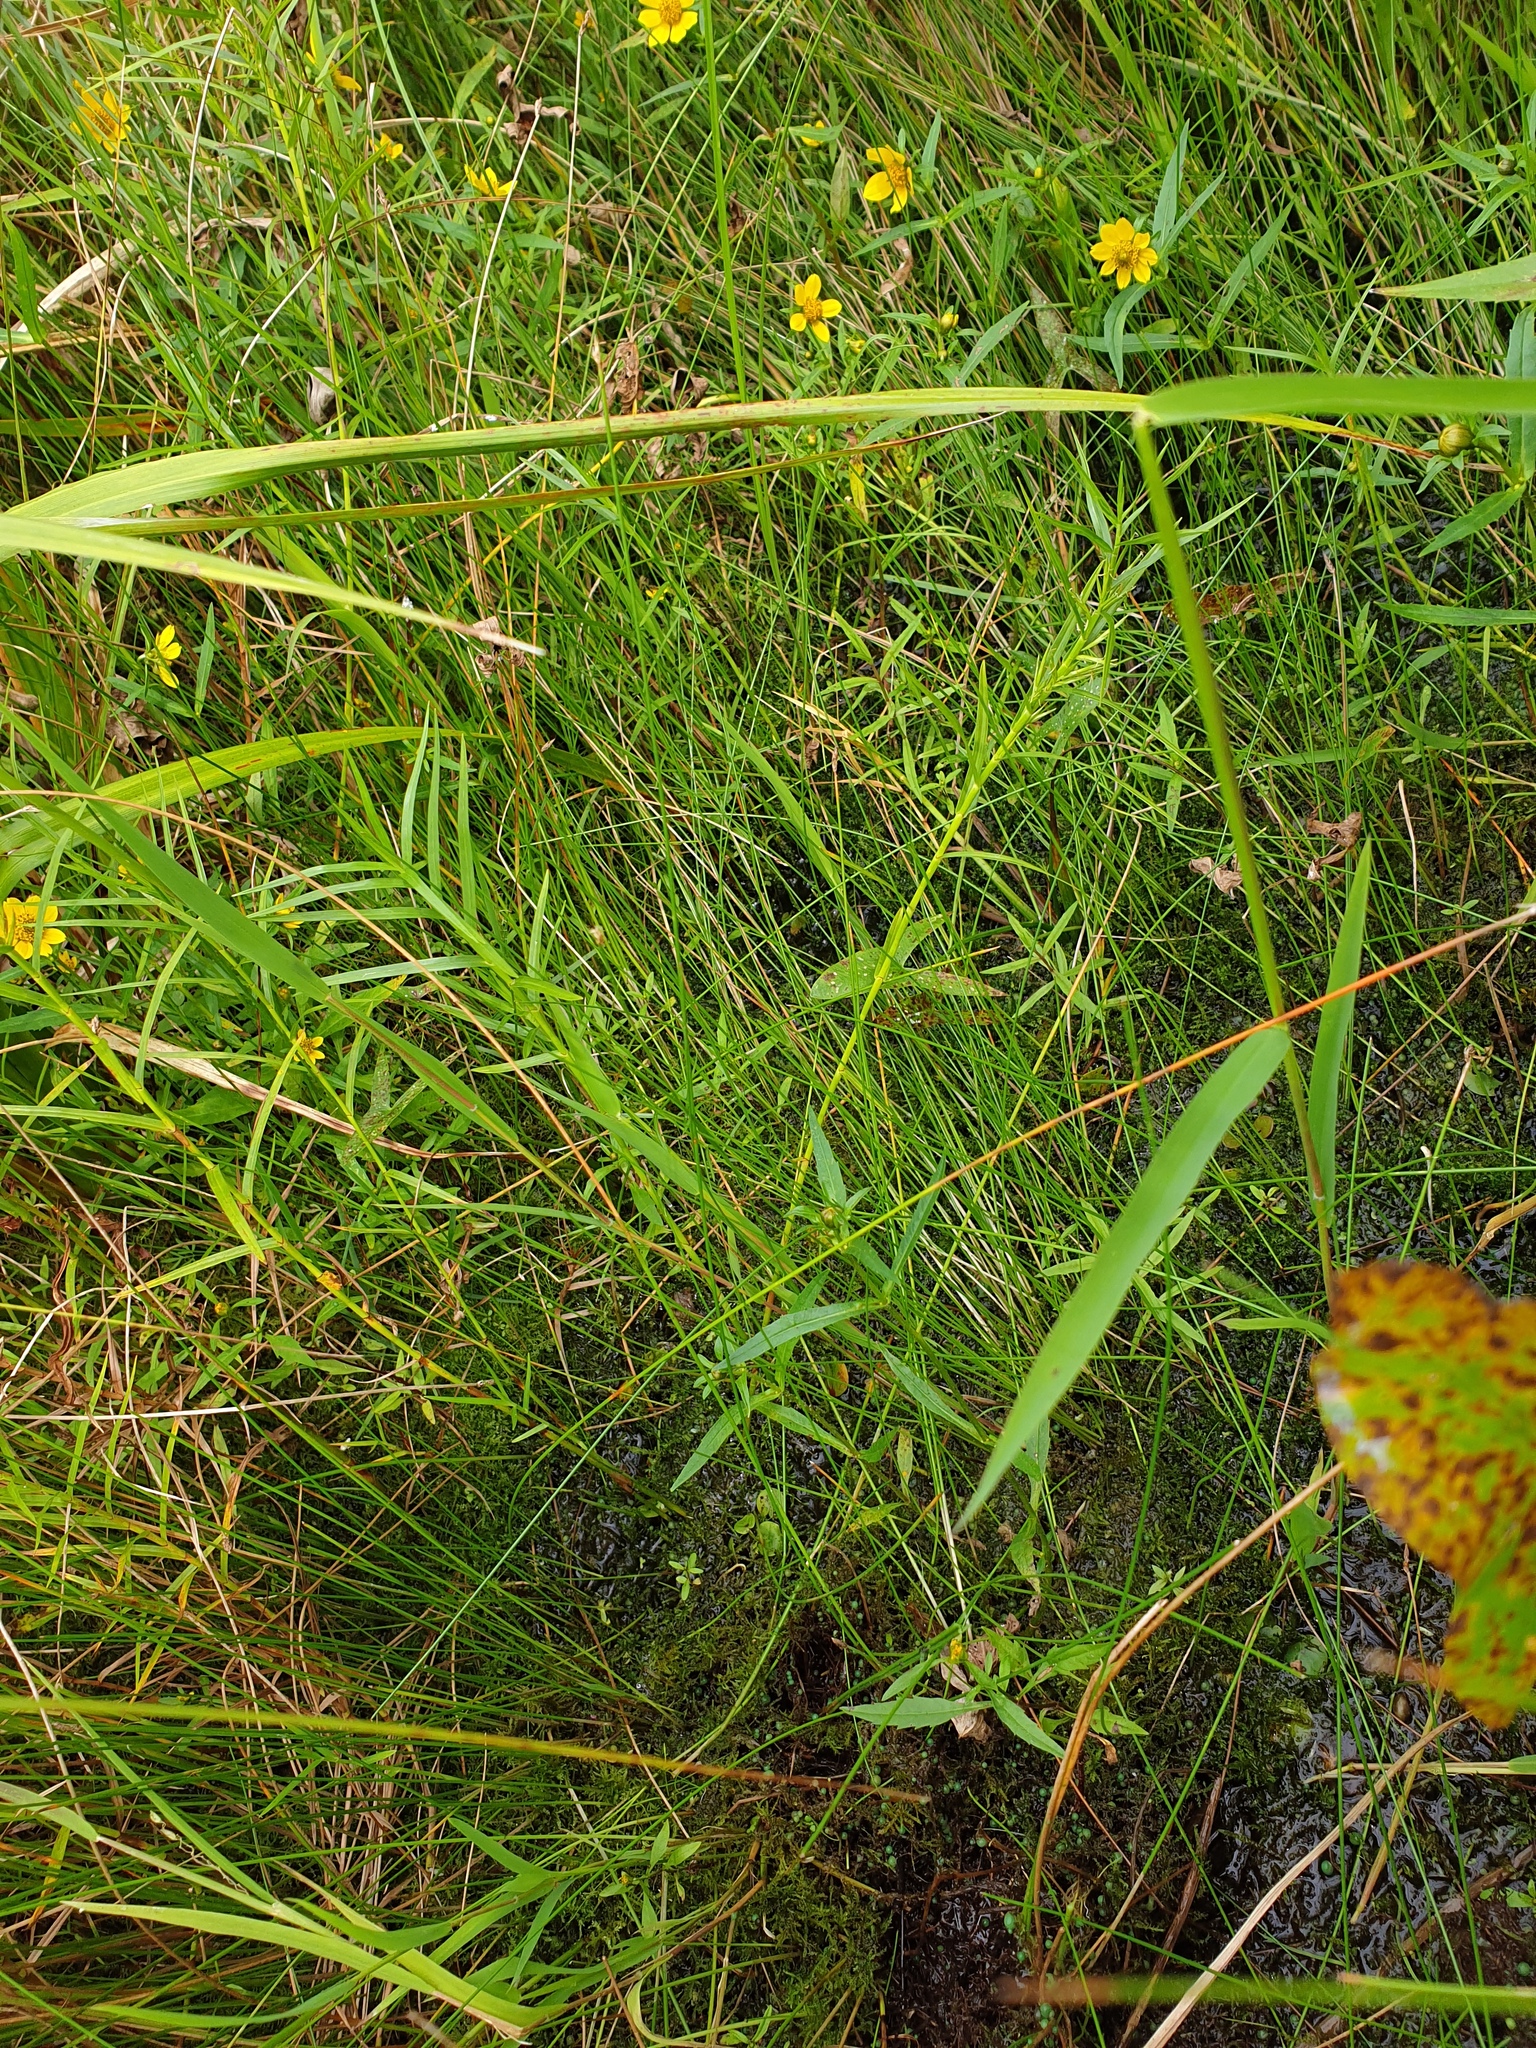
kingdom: Plantae
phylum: Tracheophyta
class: Liliopsida
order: Poales
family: Cyperaceae
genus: Dulichium
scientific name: Dulichium arundinaceum
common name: Three-way sedge
